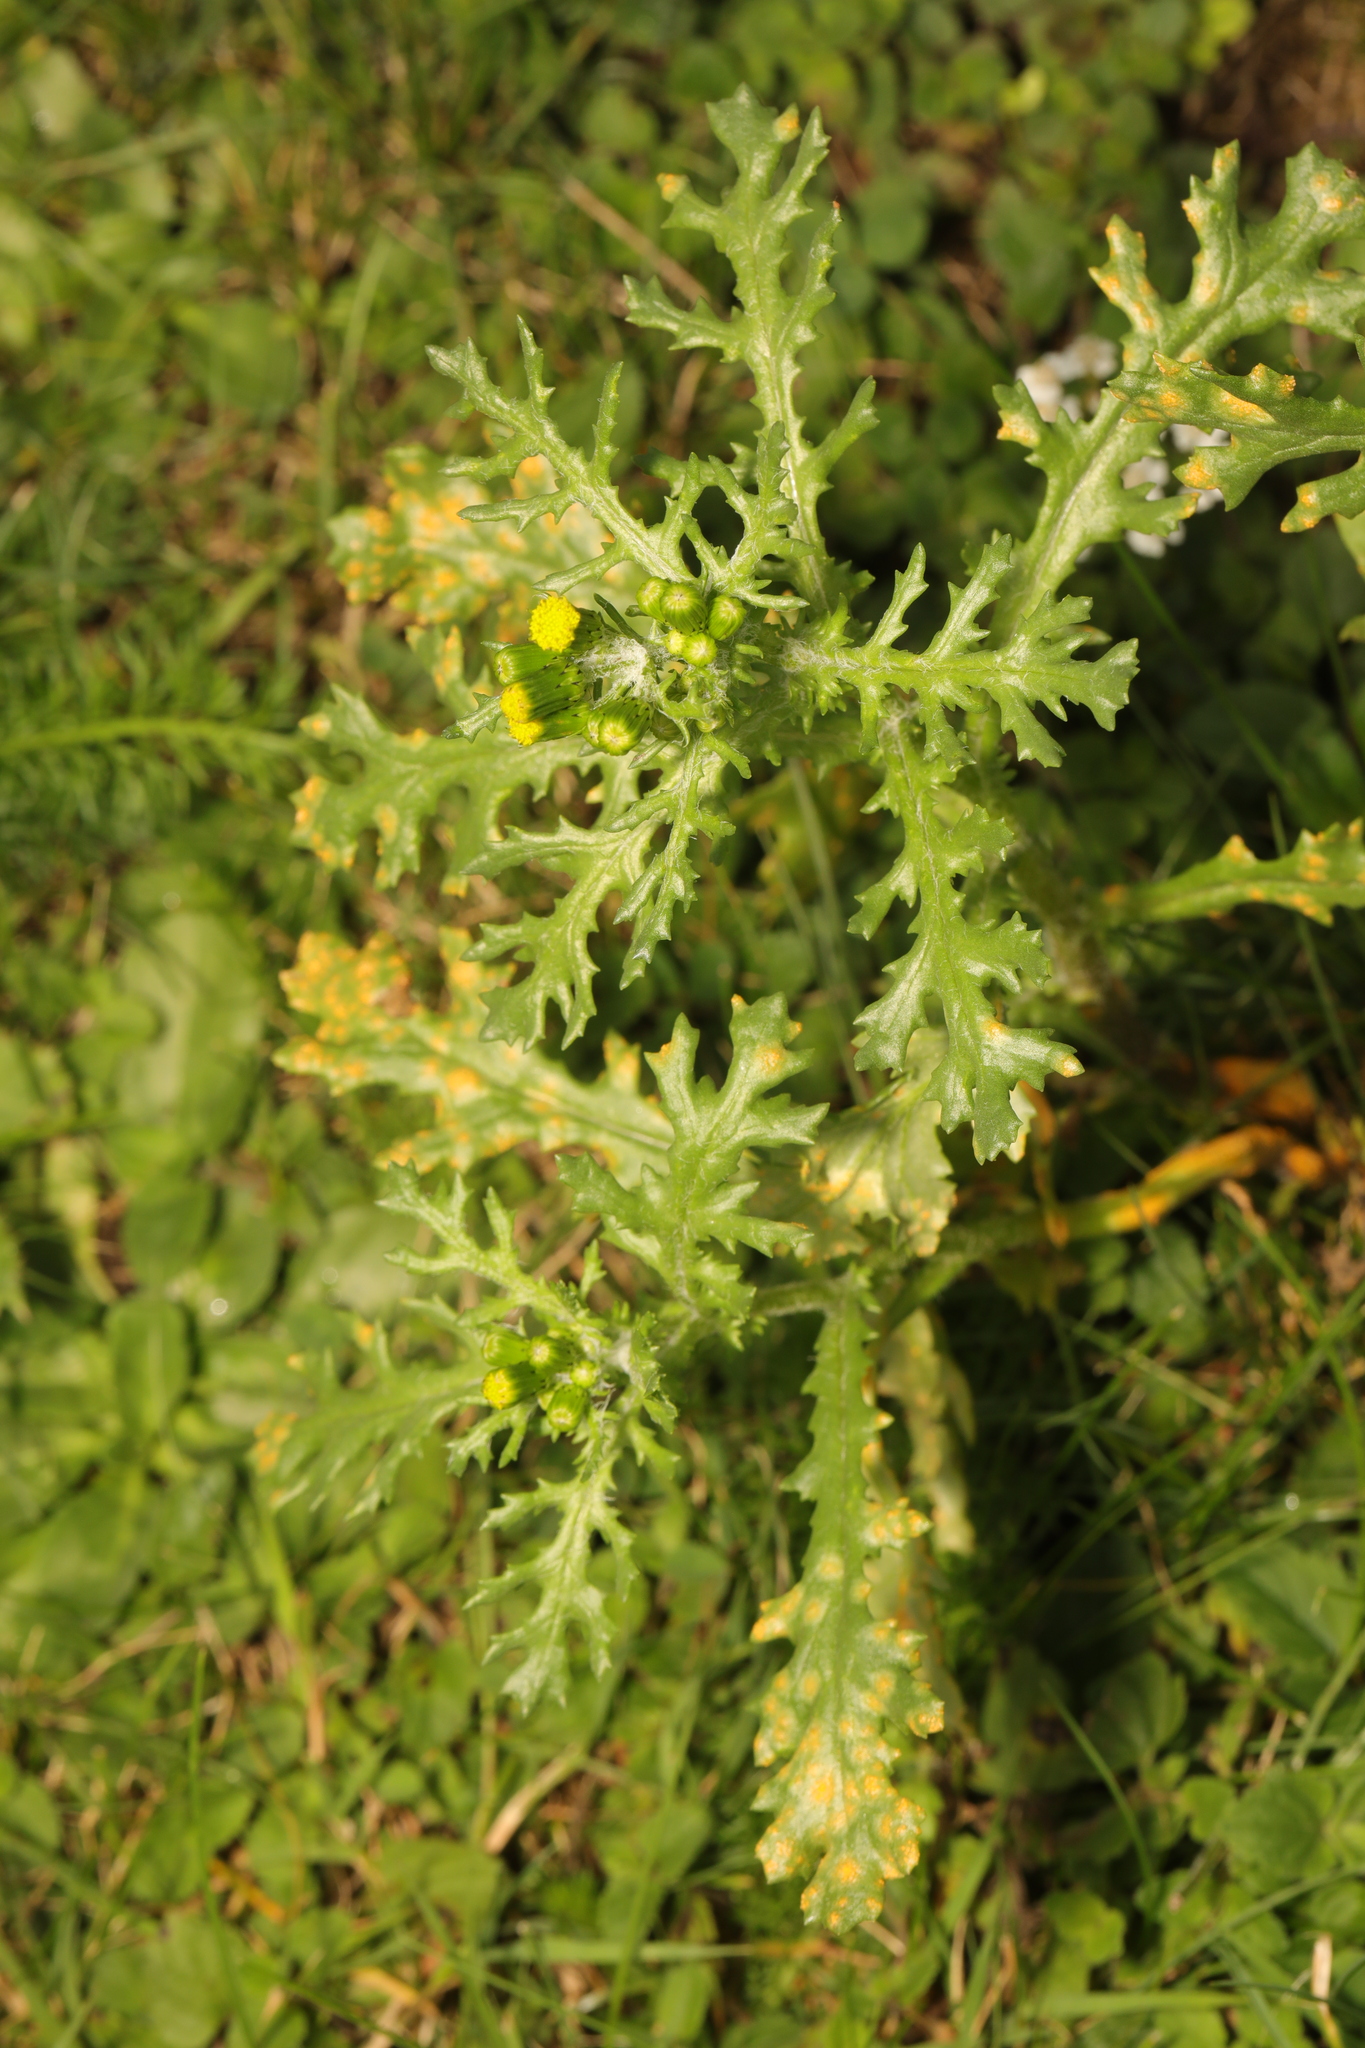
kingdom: Plantae
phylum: Tracheophyta
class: Magnoliopsida
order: Asterales
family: Asteraceae
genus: Senecio
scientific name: Senecio vulgaris
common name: Old-man-in-the-spring
